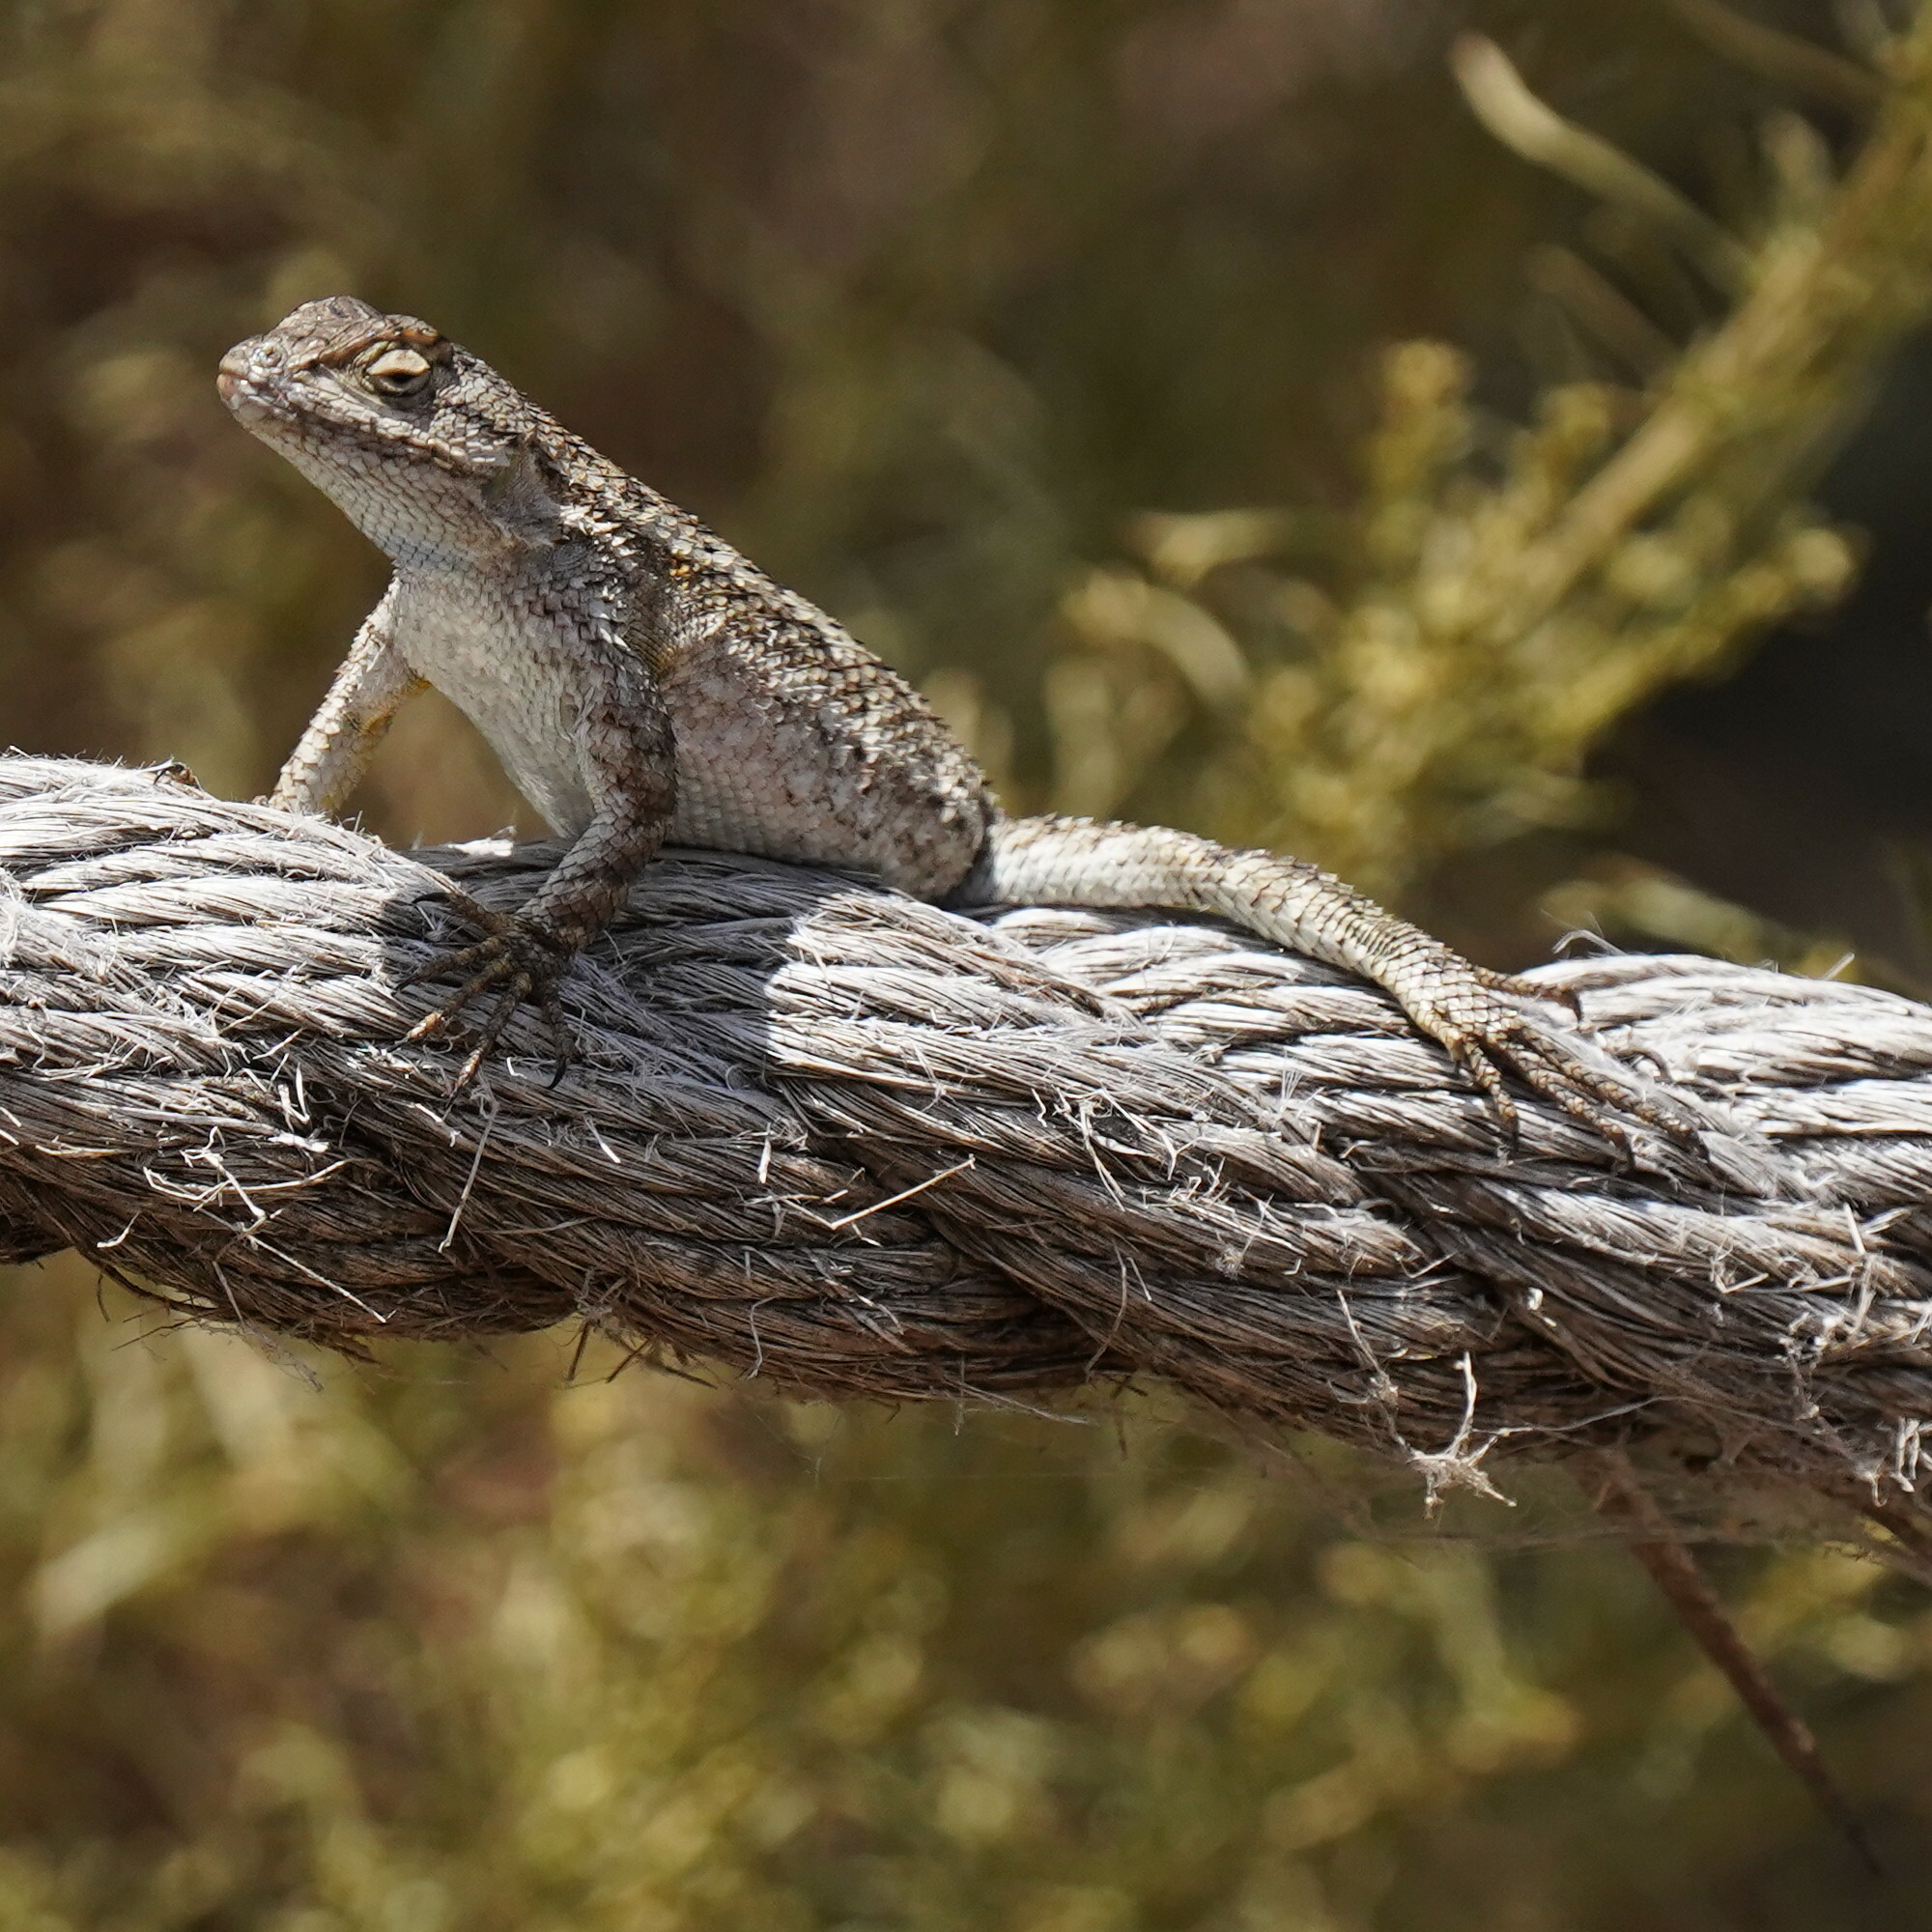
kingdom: Animalia
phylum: Chordata
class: Squamata
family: Phrynosomatidae
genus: Sceloporus
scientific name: Sceloporus occidentalis
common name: Western fence lizard
